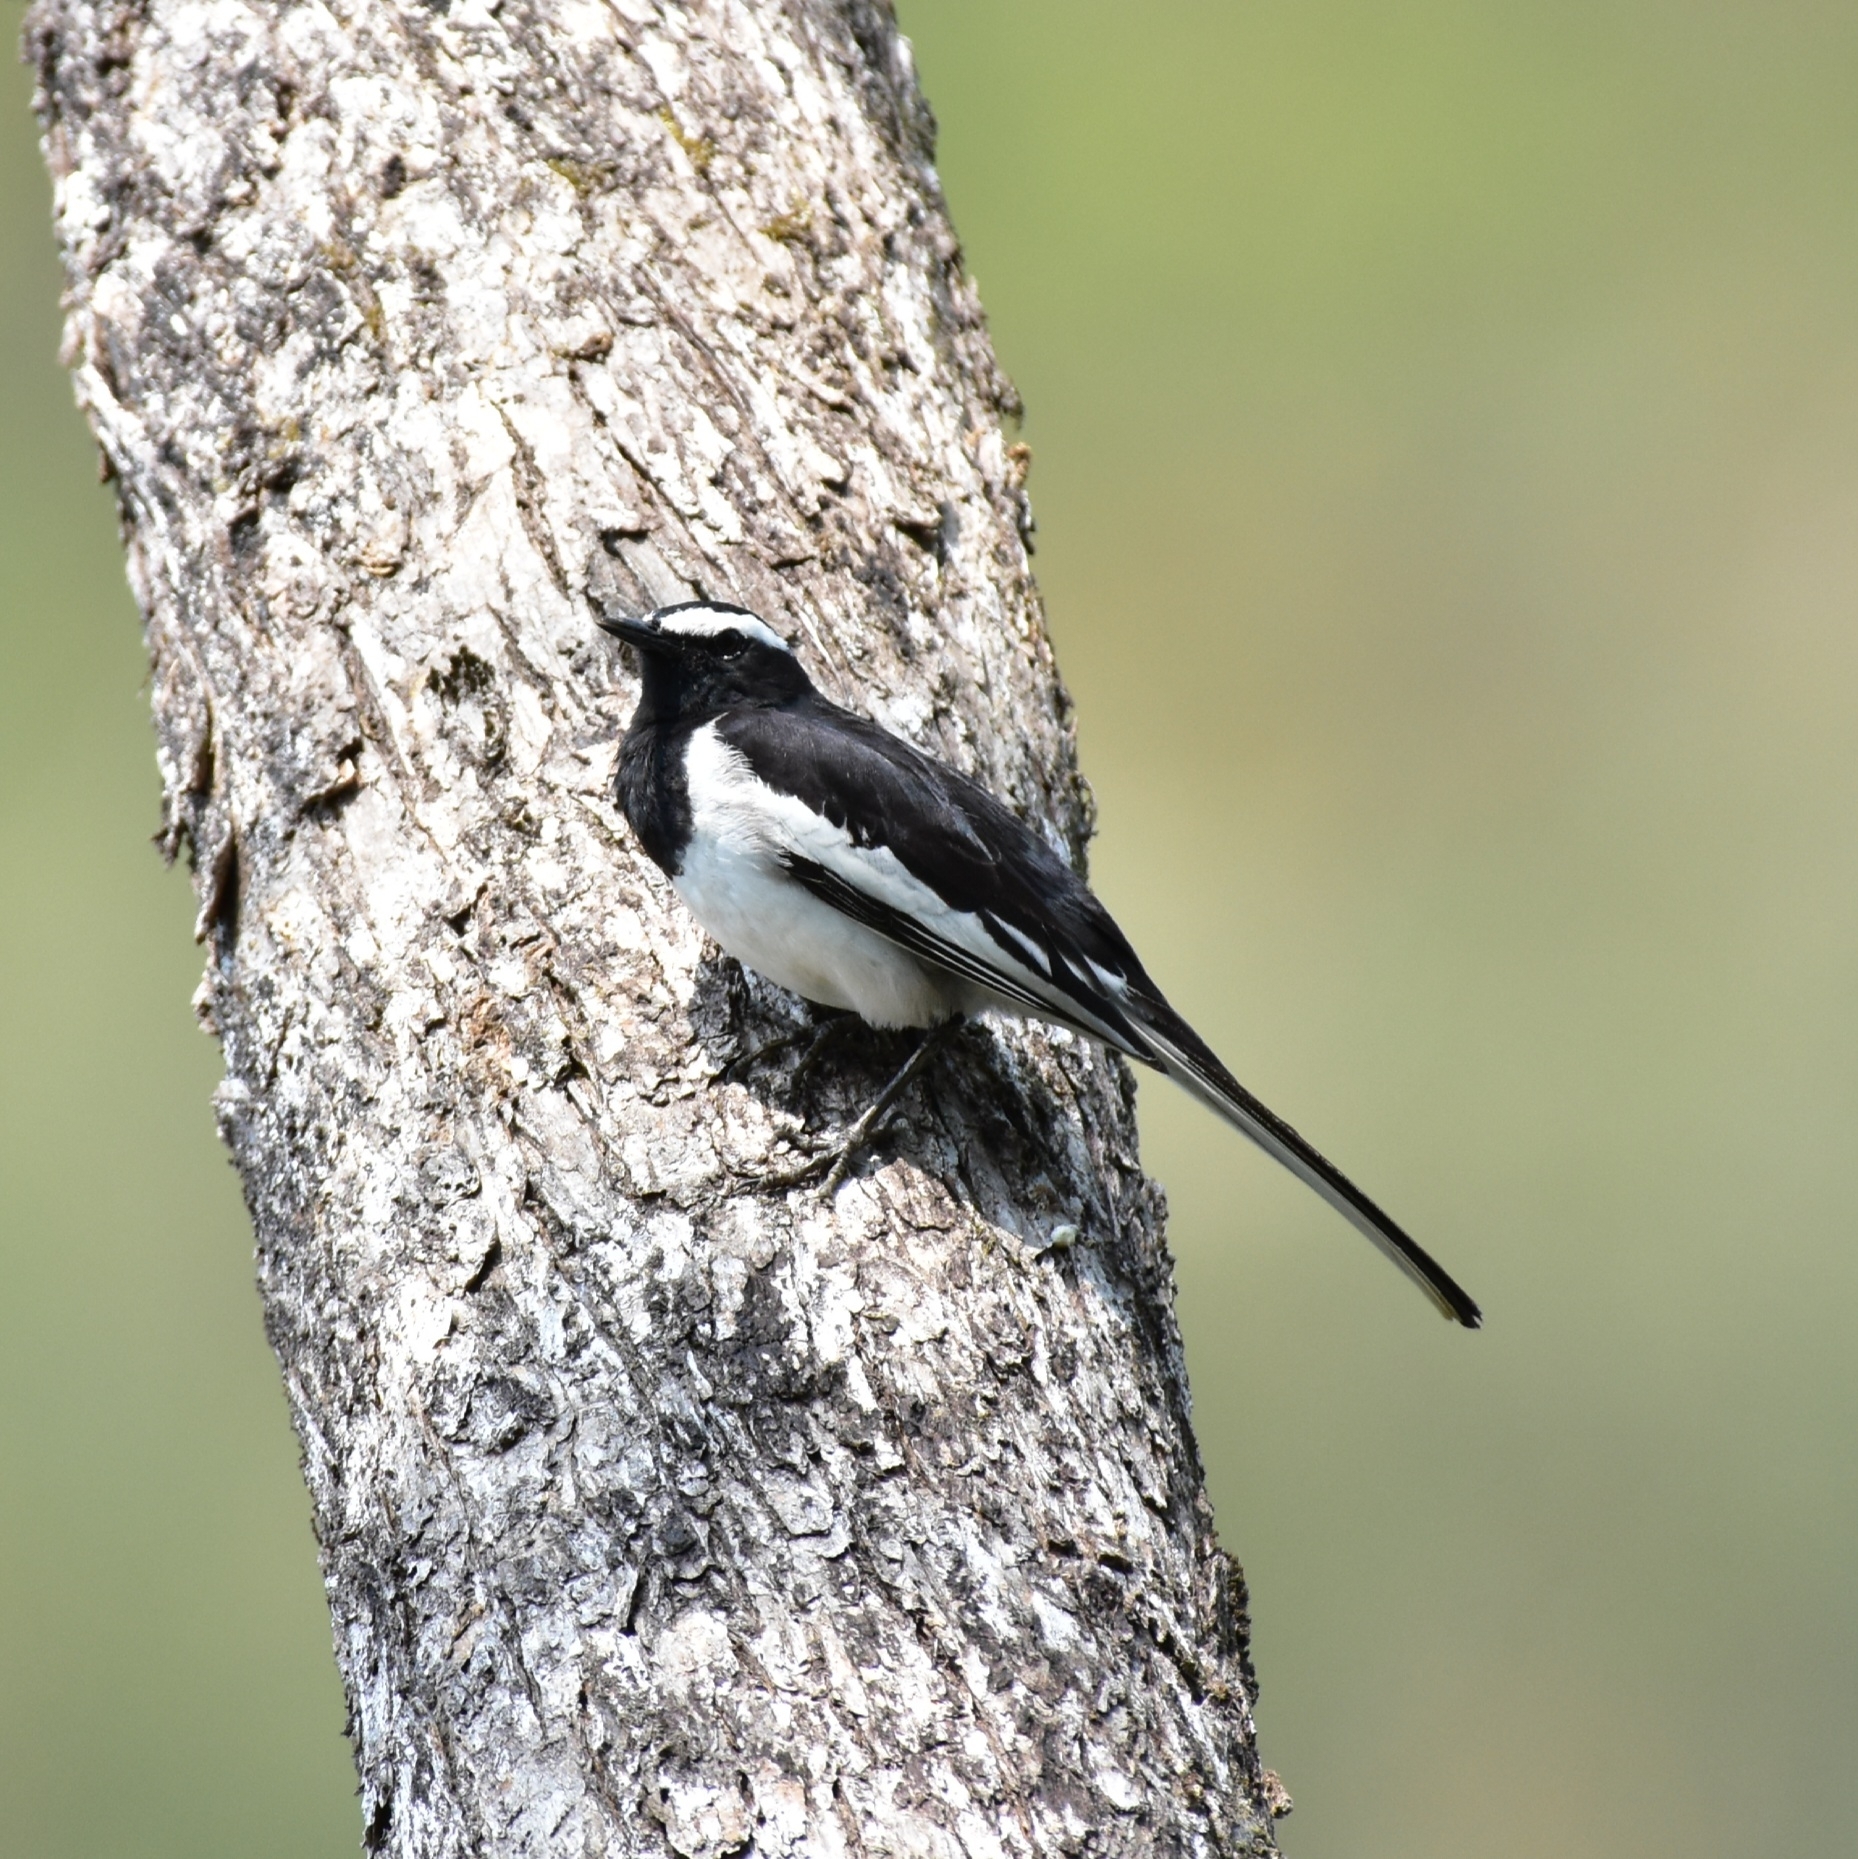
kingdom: Animalia
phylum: Chordata
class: Aves
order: Passeriformes
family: Motacillidae
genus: Motacilla
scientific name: Motacilla maderaspatensis
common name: White-browed wagtail
